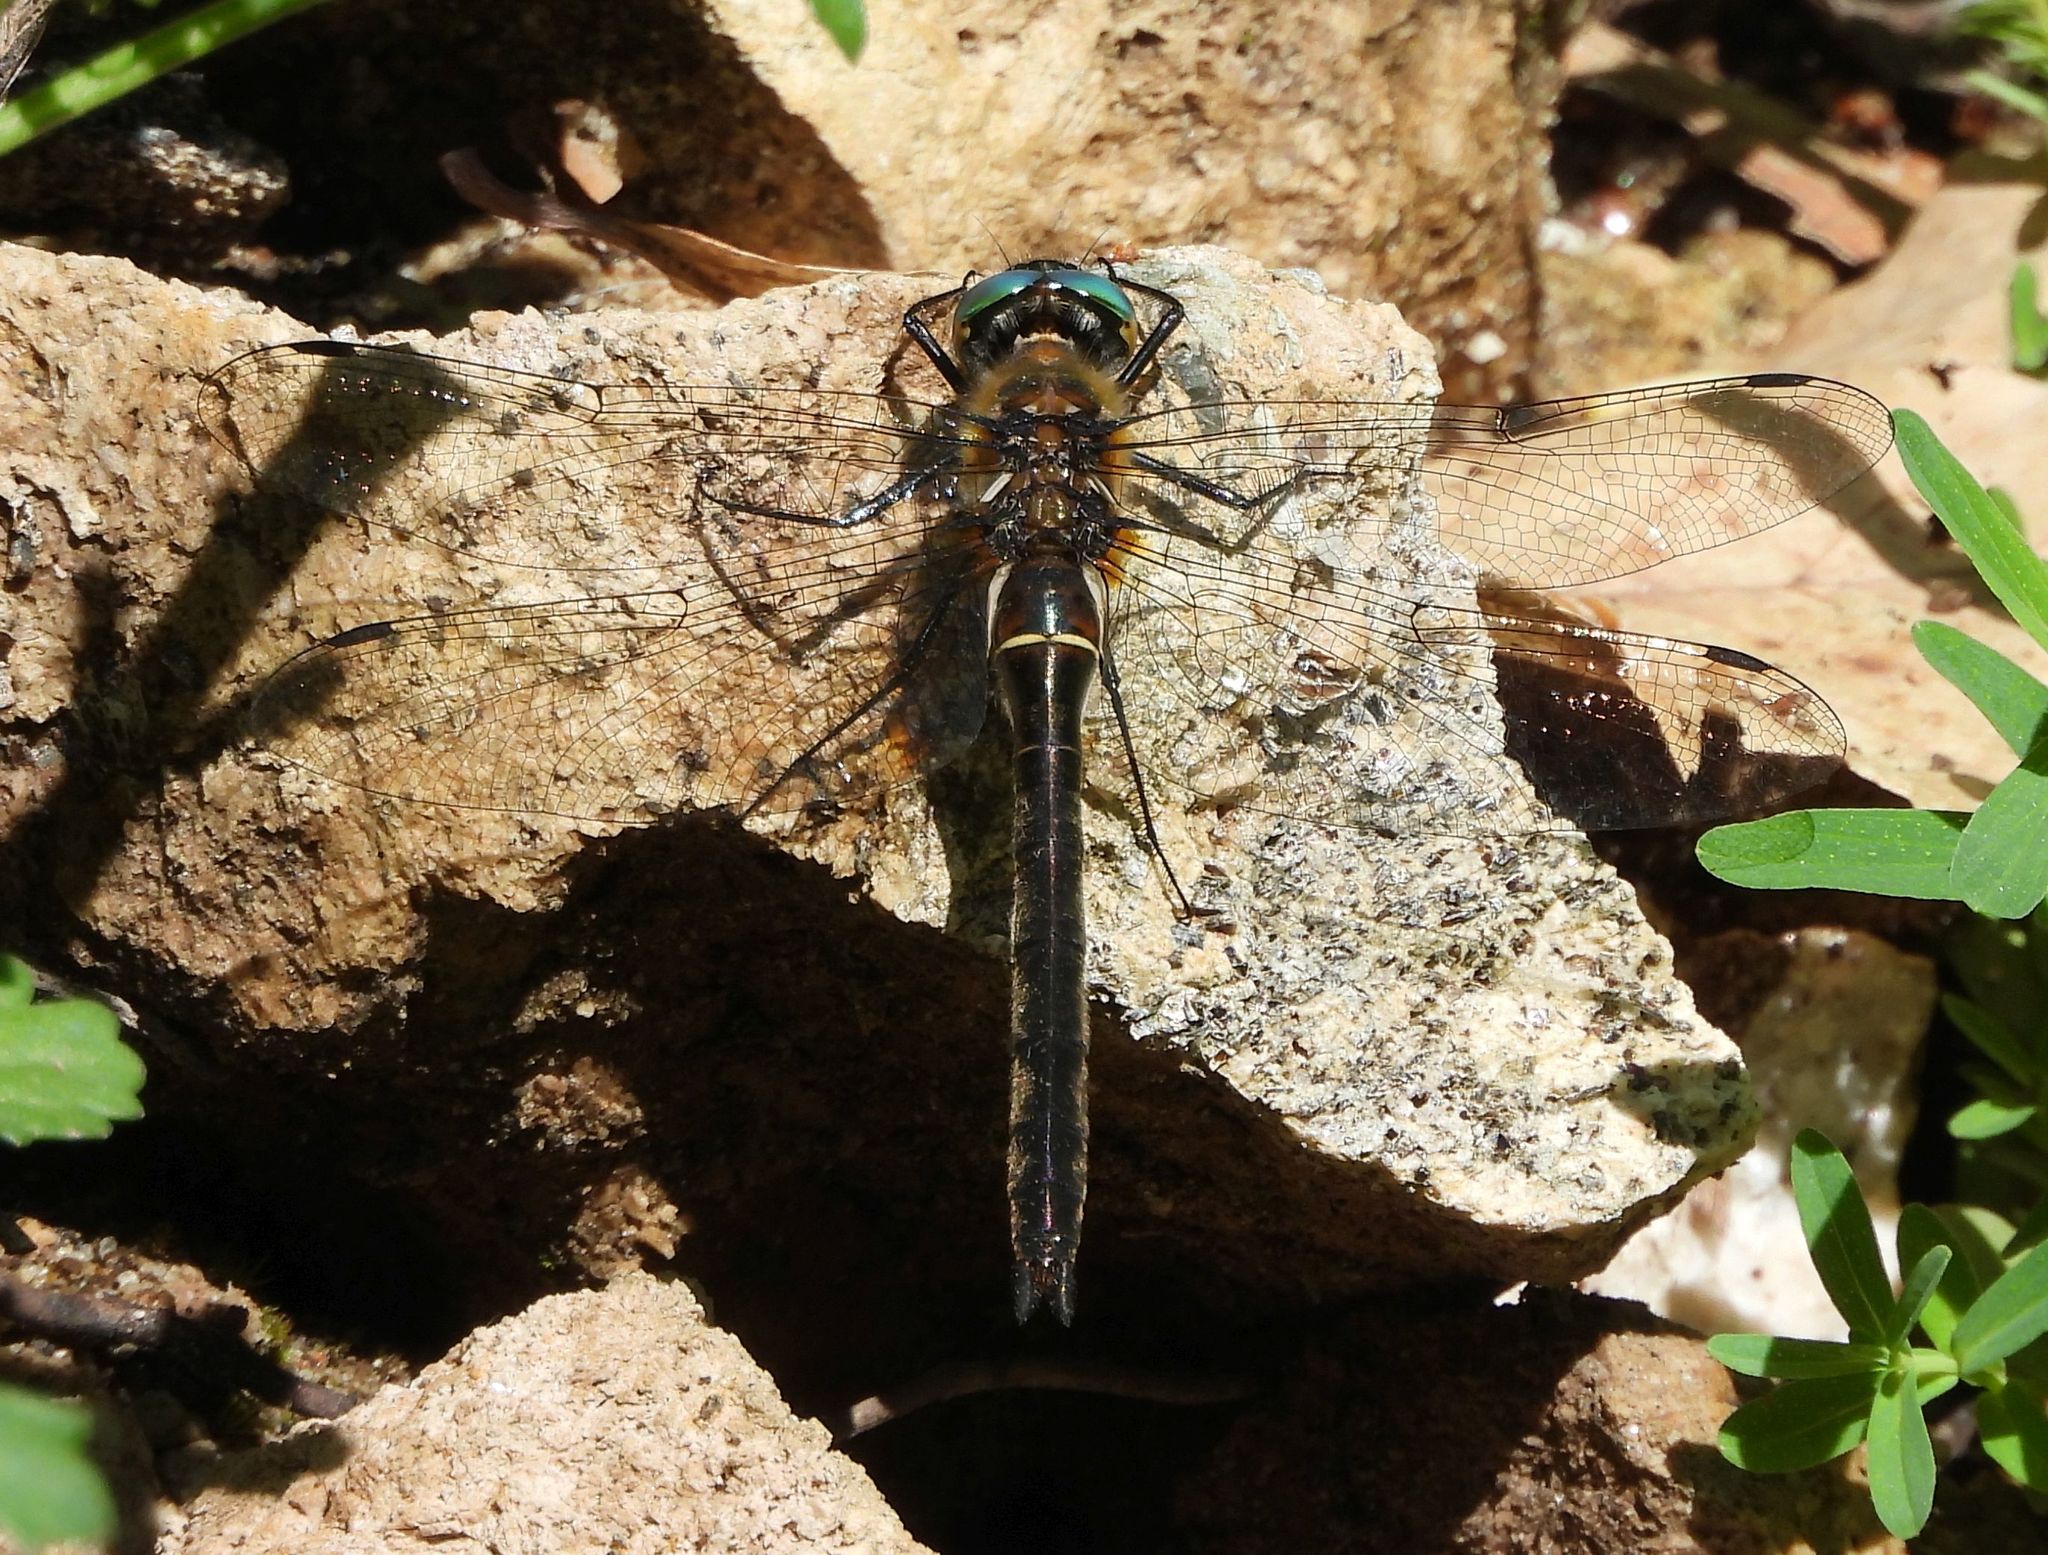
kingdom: Animalia
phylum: Arthropoda
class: Insecta
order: Odonata
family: Corduliidae
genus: Cordulia
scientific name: Cordulia shurtleffii
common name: American emerald
